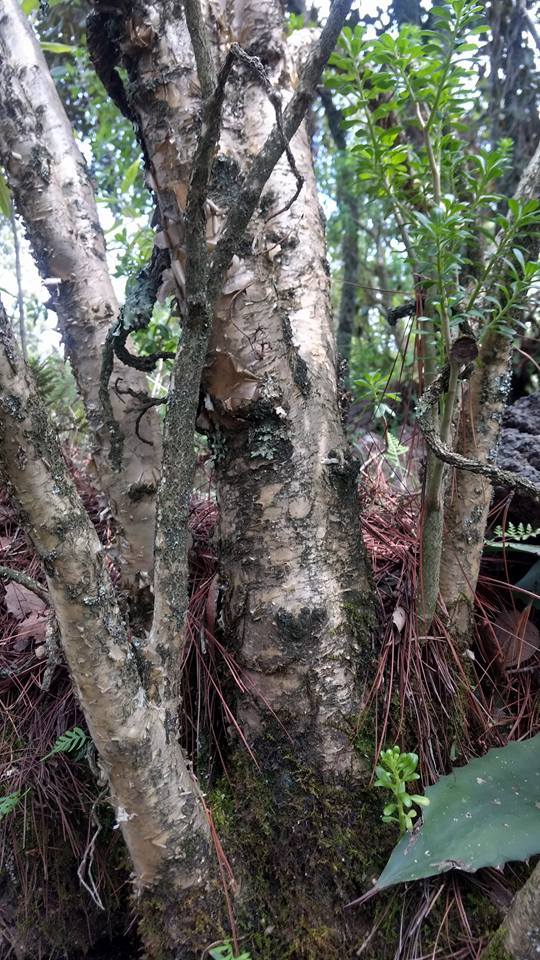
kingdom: Plantae
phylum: Tracheophyta
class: Magnoliopsida
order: Saxifragales
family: Crassulaceae
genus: Sedum
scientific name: Sedum oxypetalum
